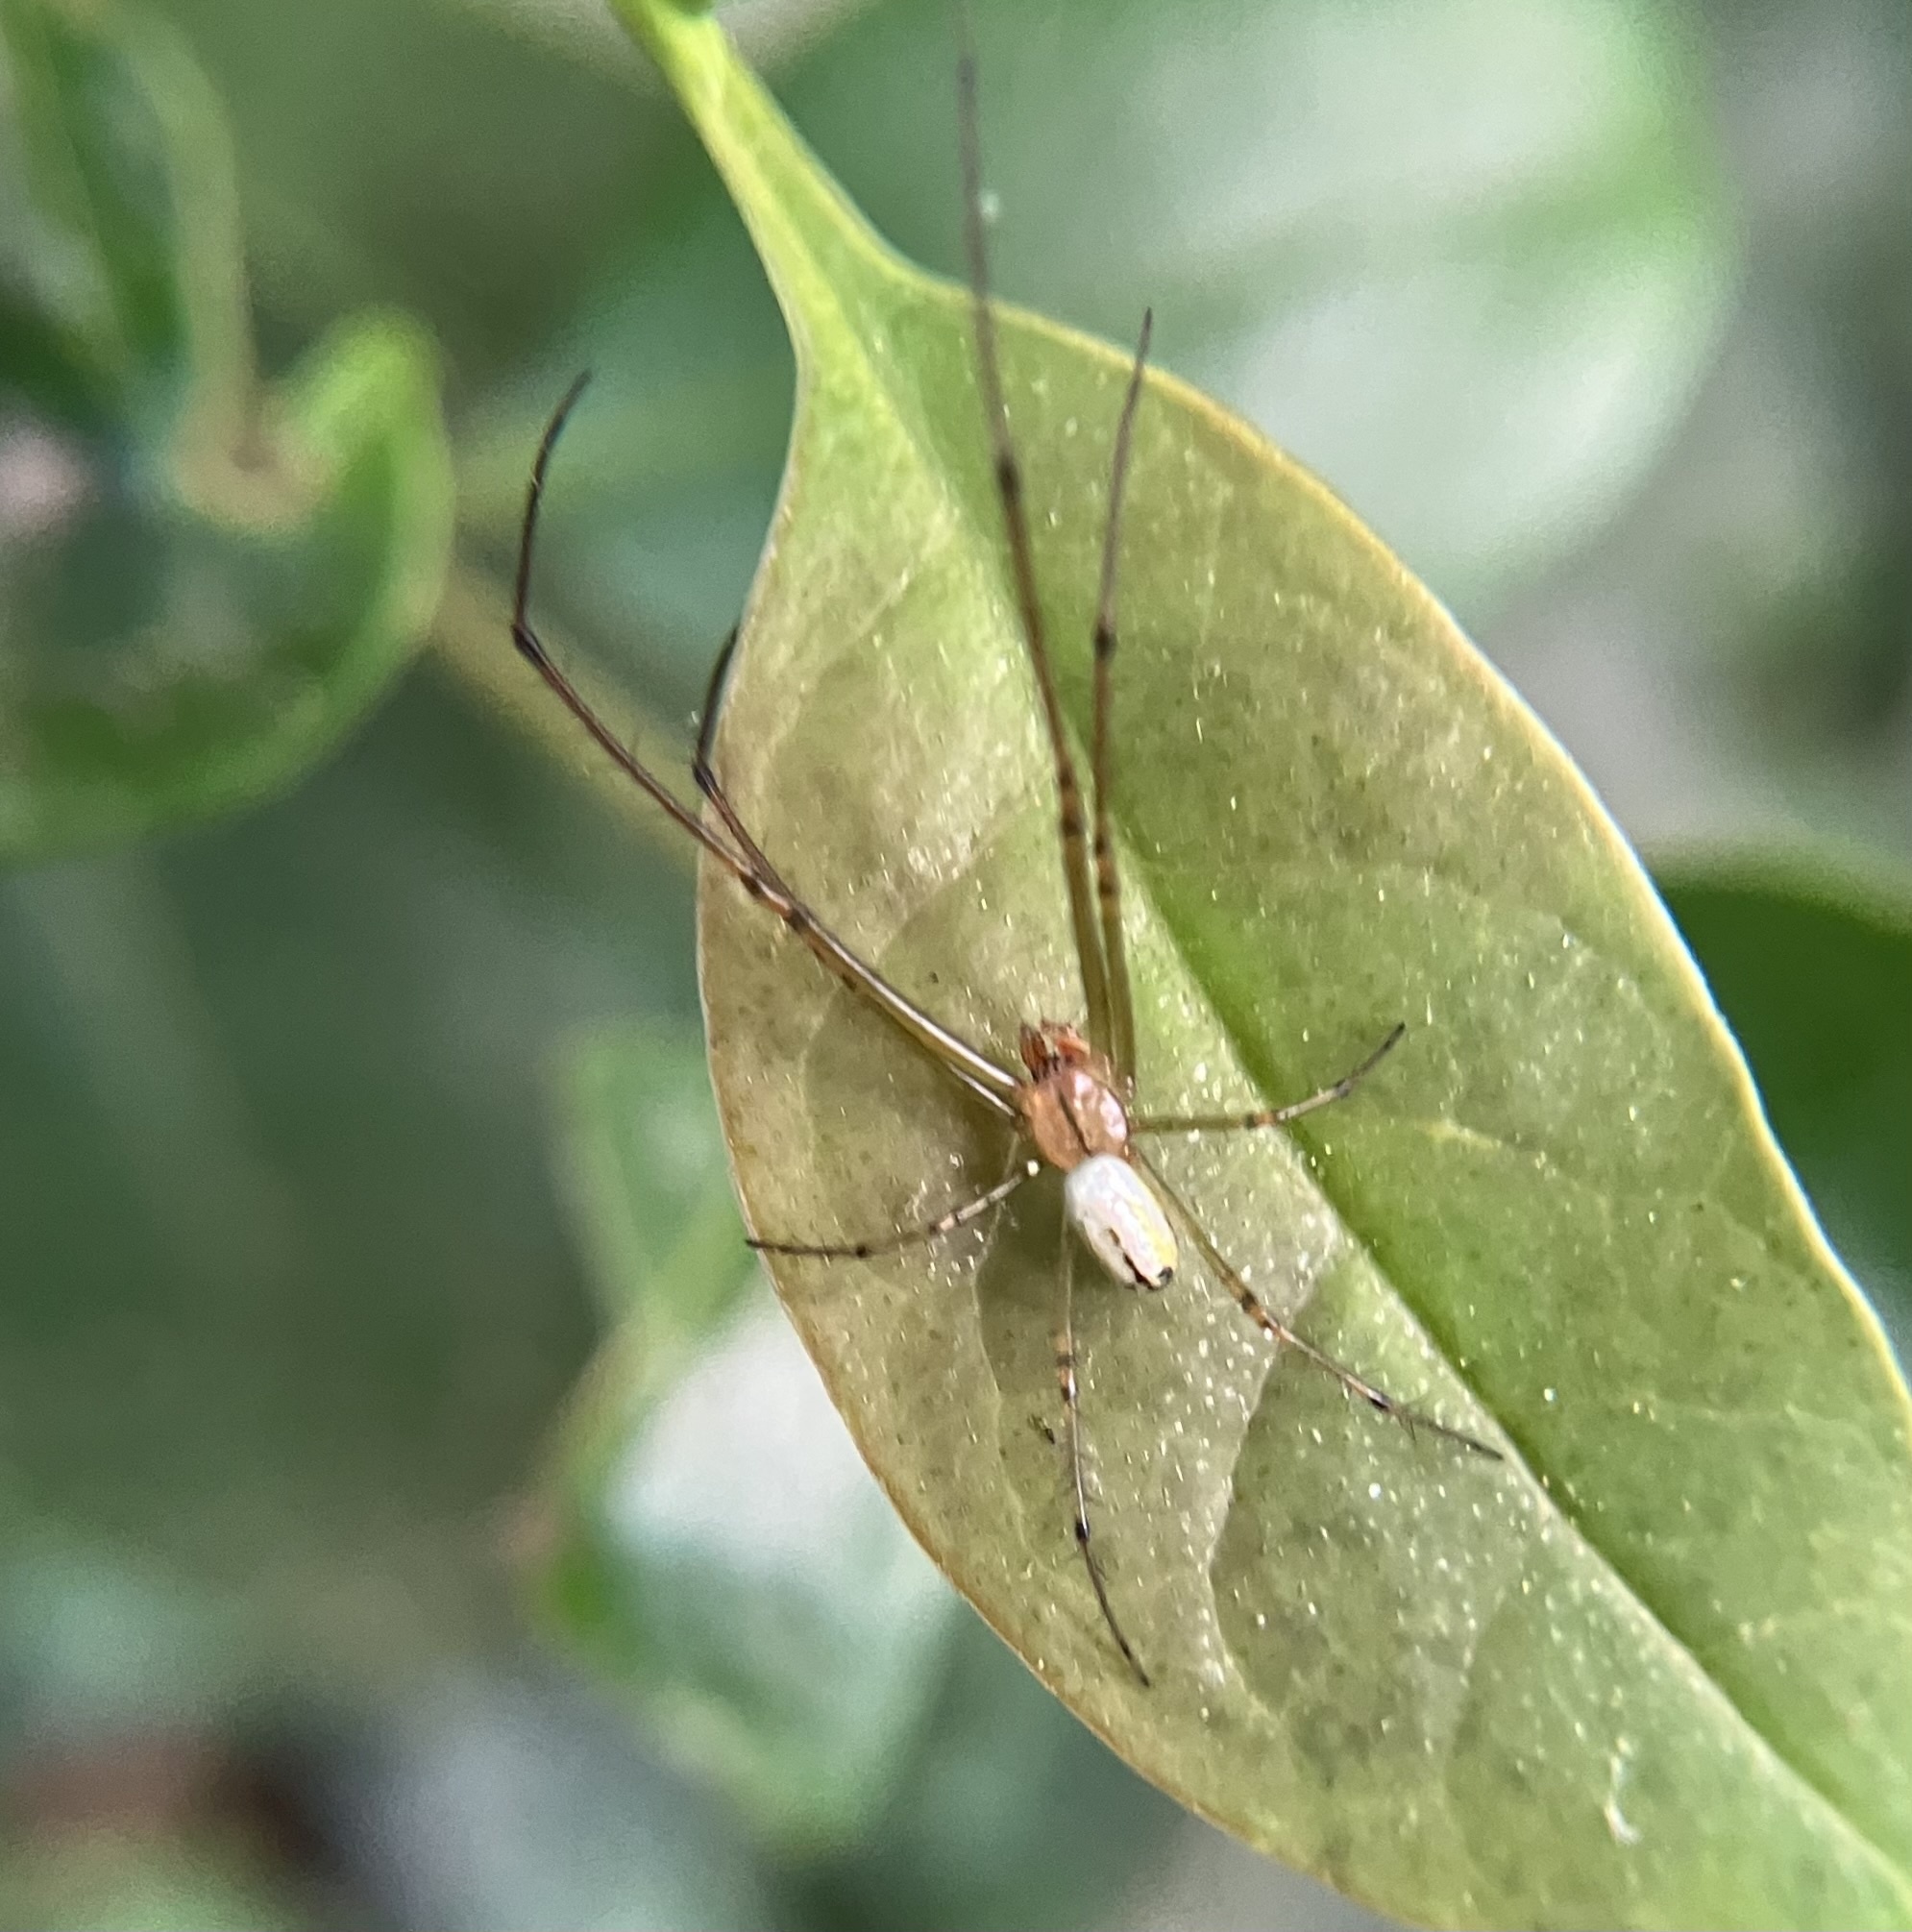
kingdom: Animalia
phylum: Arthropoda
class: Arachnida
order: Araneae
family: Tetragnathidae
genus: Leucauge
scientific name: Leucauge venusta
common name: Longjawed orb weavers
